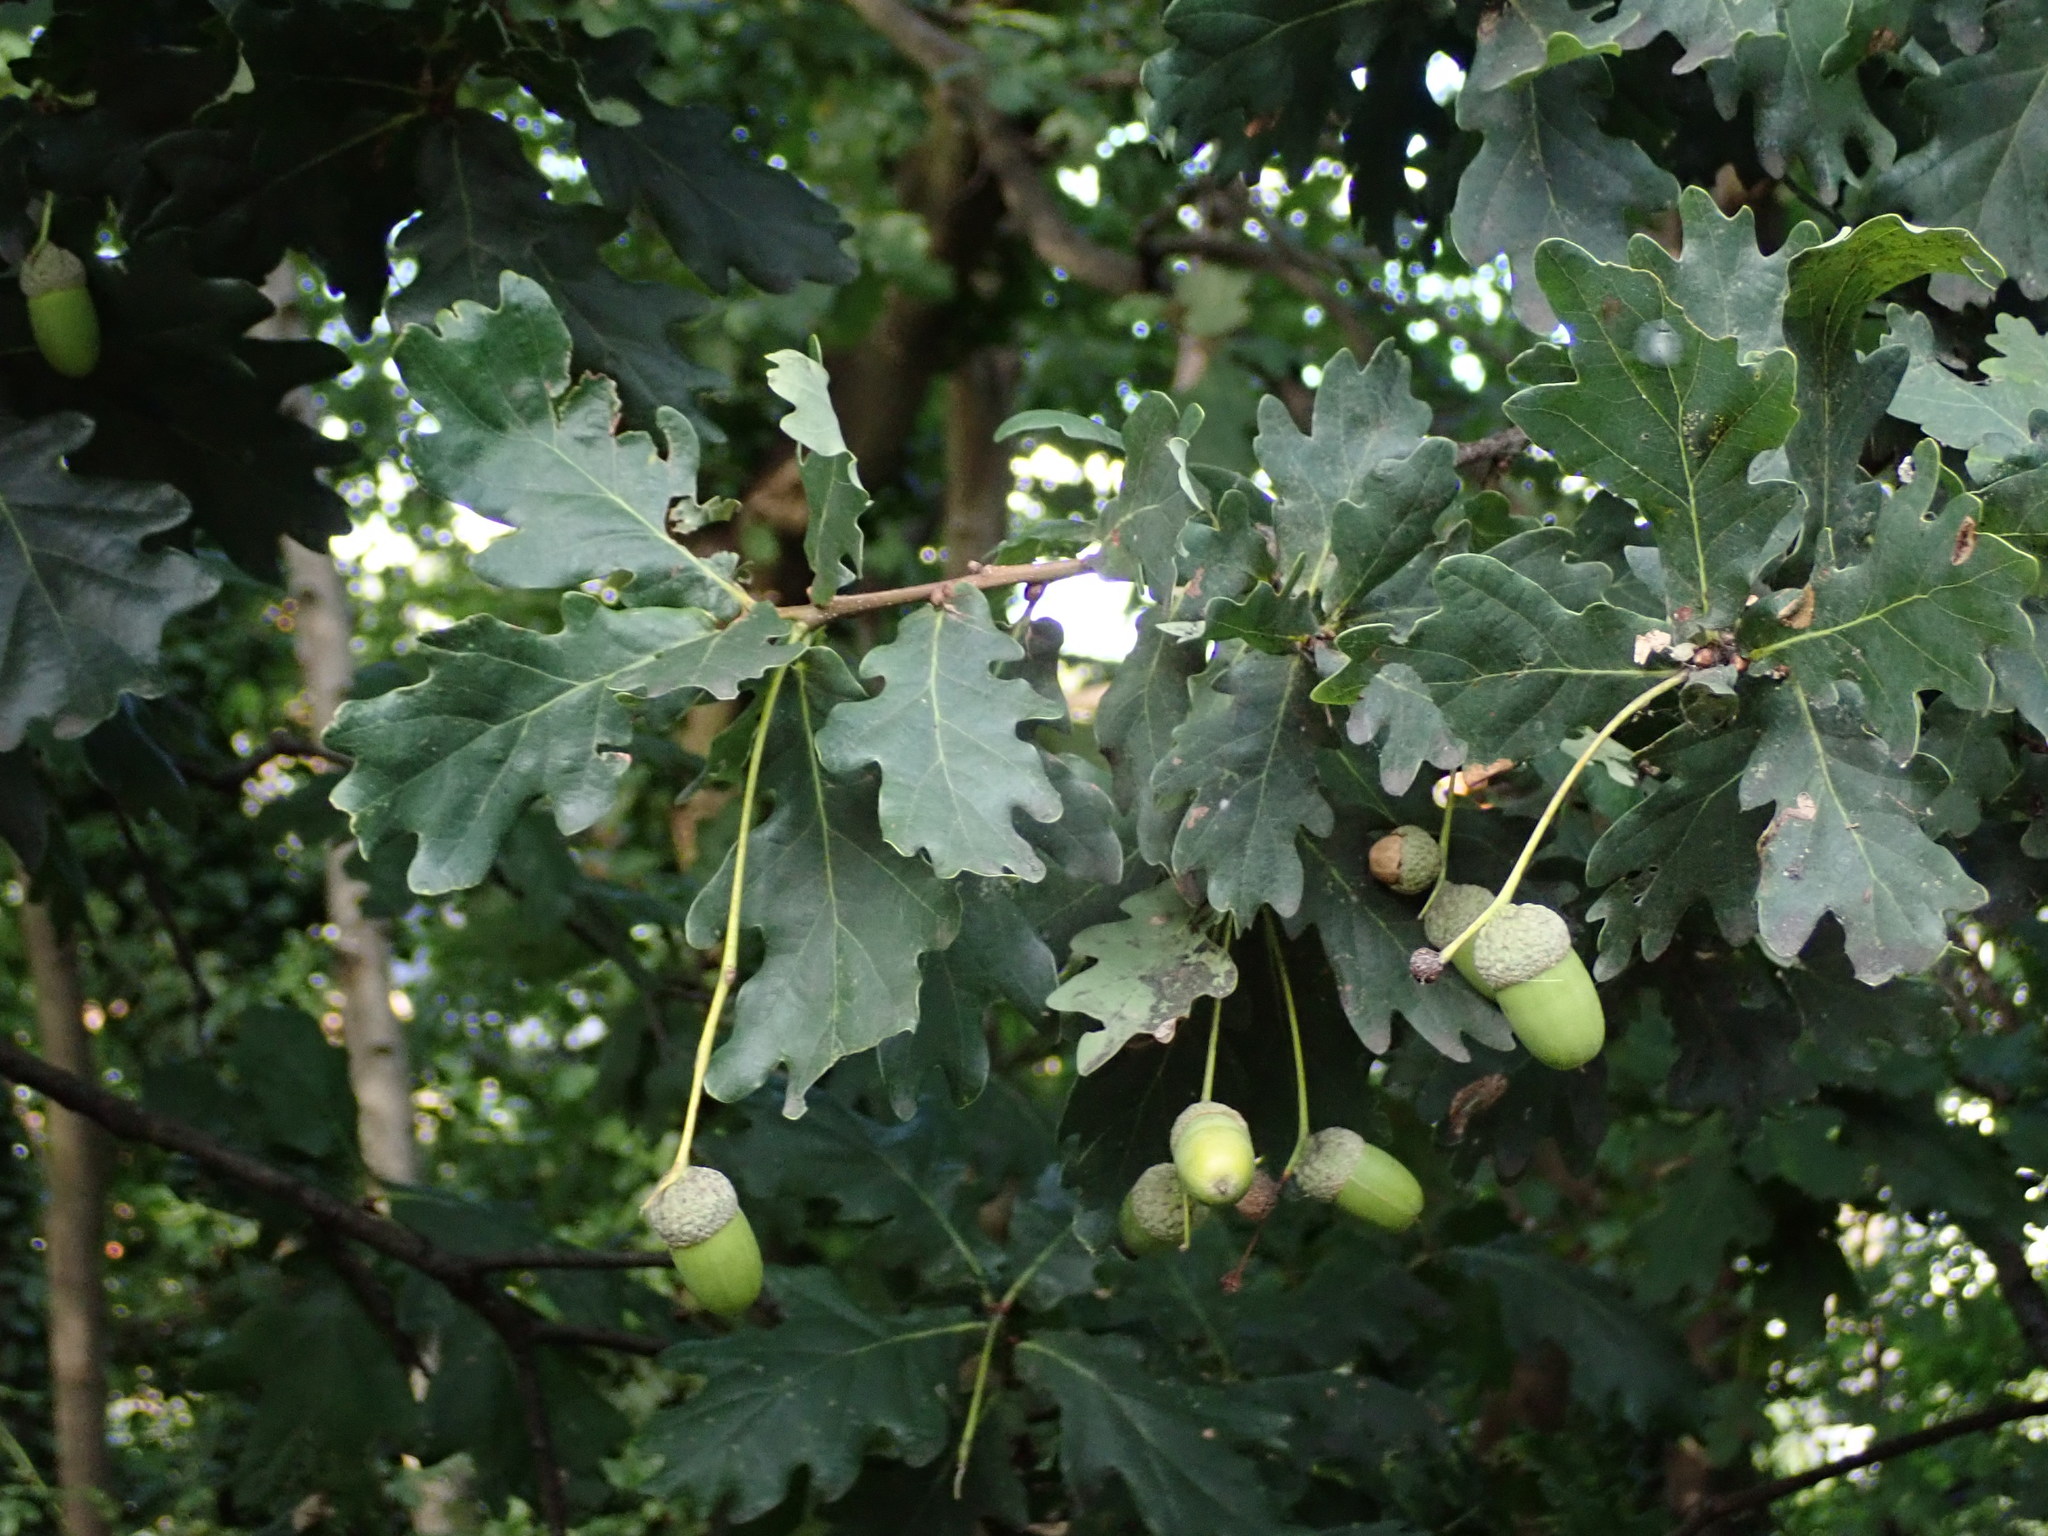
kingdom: Plantae
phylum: Tracheophyta
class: Magnoliopsida
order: Fagales
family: Fagaceae
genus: Quercus
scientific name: Quercus robur
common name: Pedunculate oak
